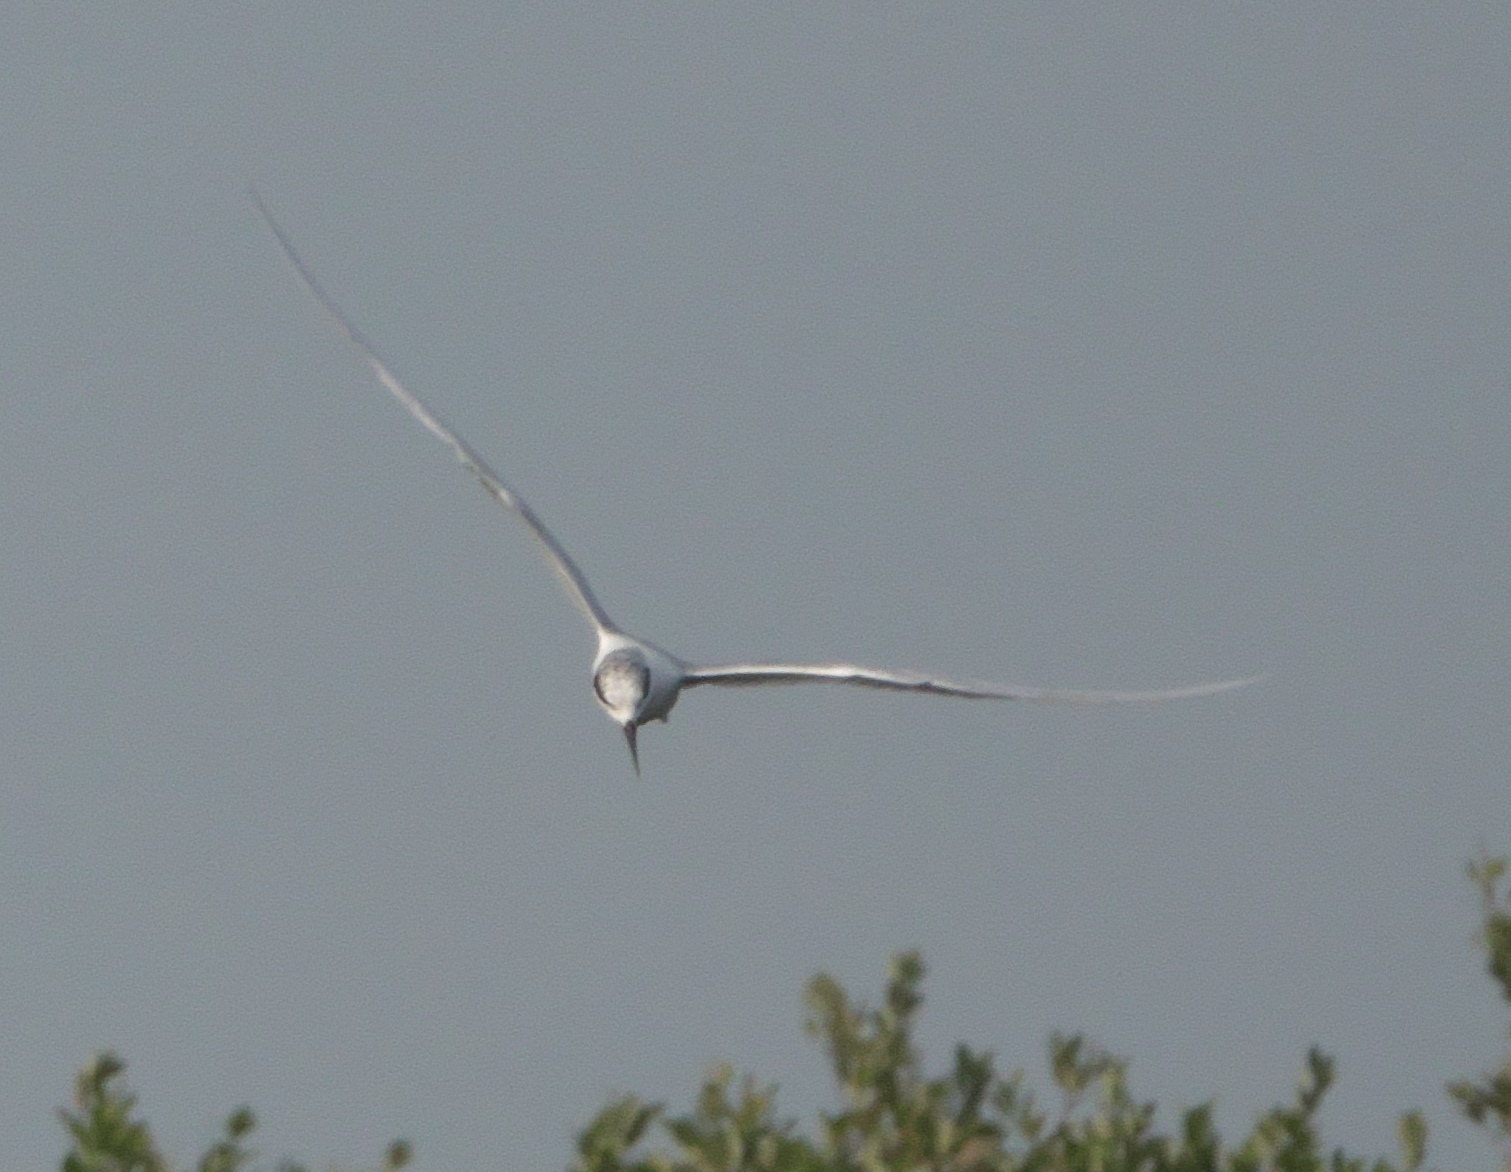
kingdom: Animalia
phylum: Chordata
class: Aves
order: Charadriiformes
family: Laridae
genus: Sterna
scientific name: Sterna forsteri
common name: Forster's tern
